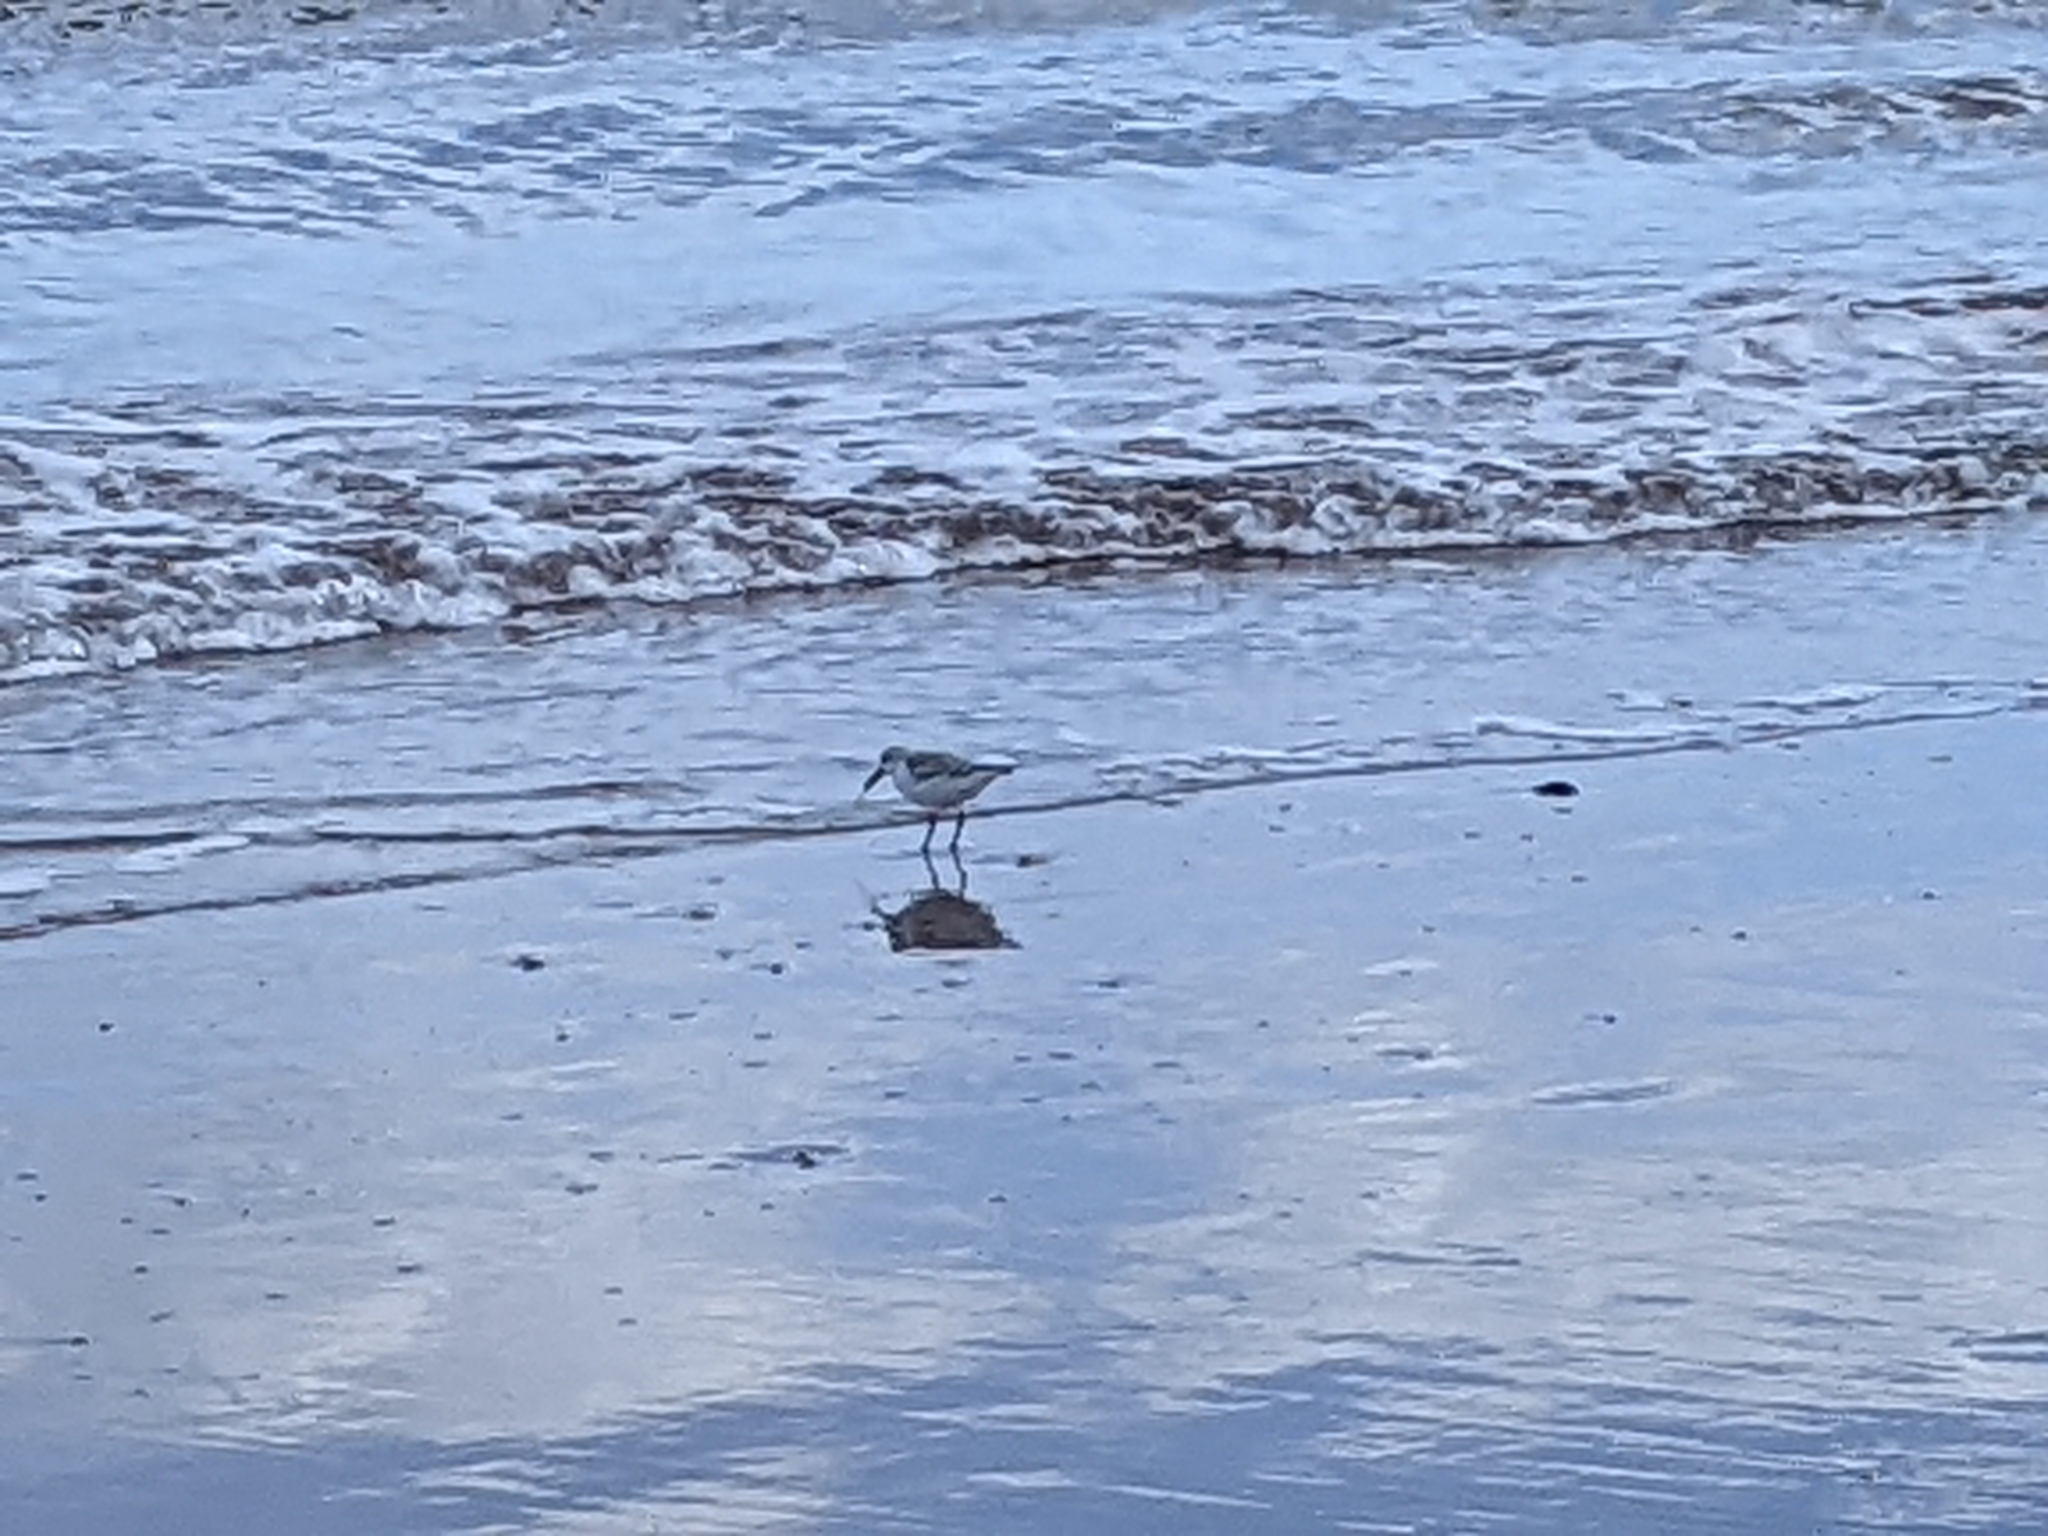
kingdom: Animalia
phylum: Chordata
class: Aves
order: Charadriiformes
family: Scolopacidae
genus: Calidris
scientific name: Calidris alba
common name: Sanderling
